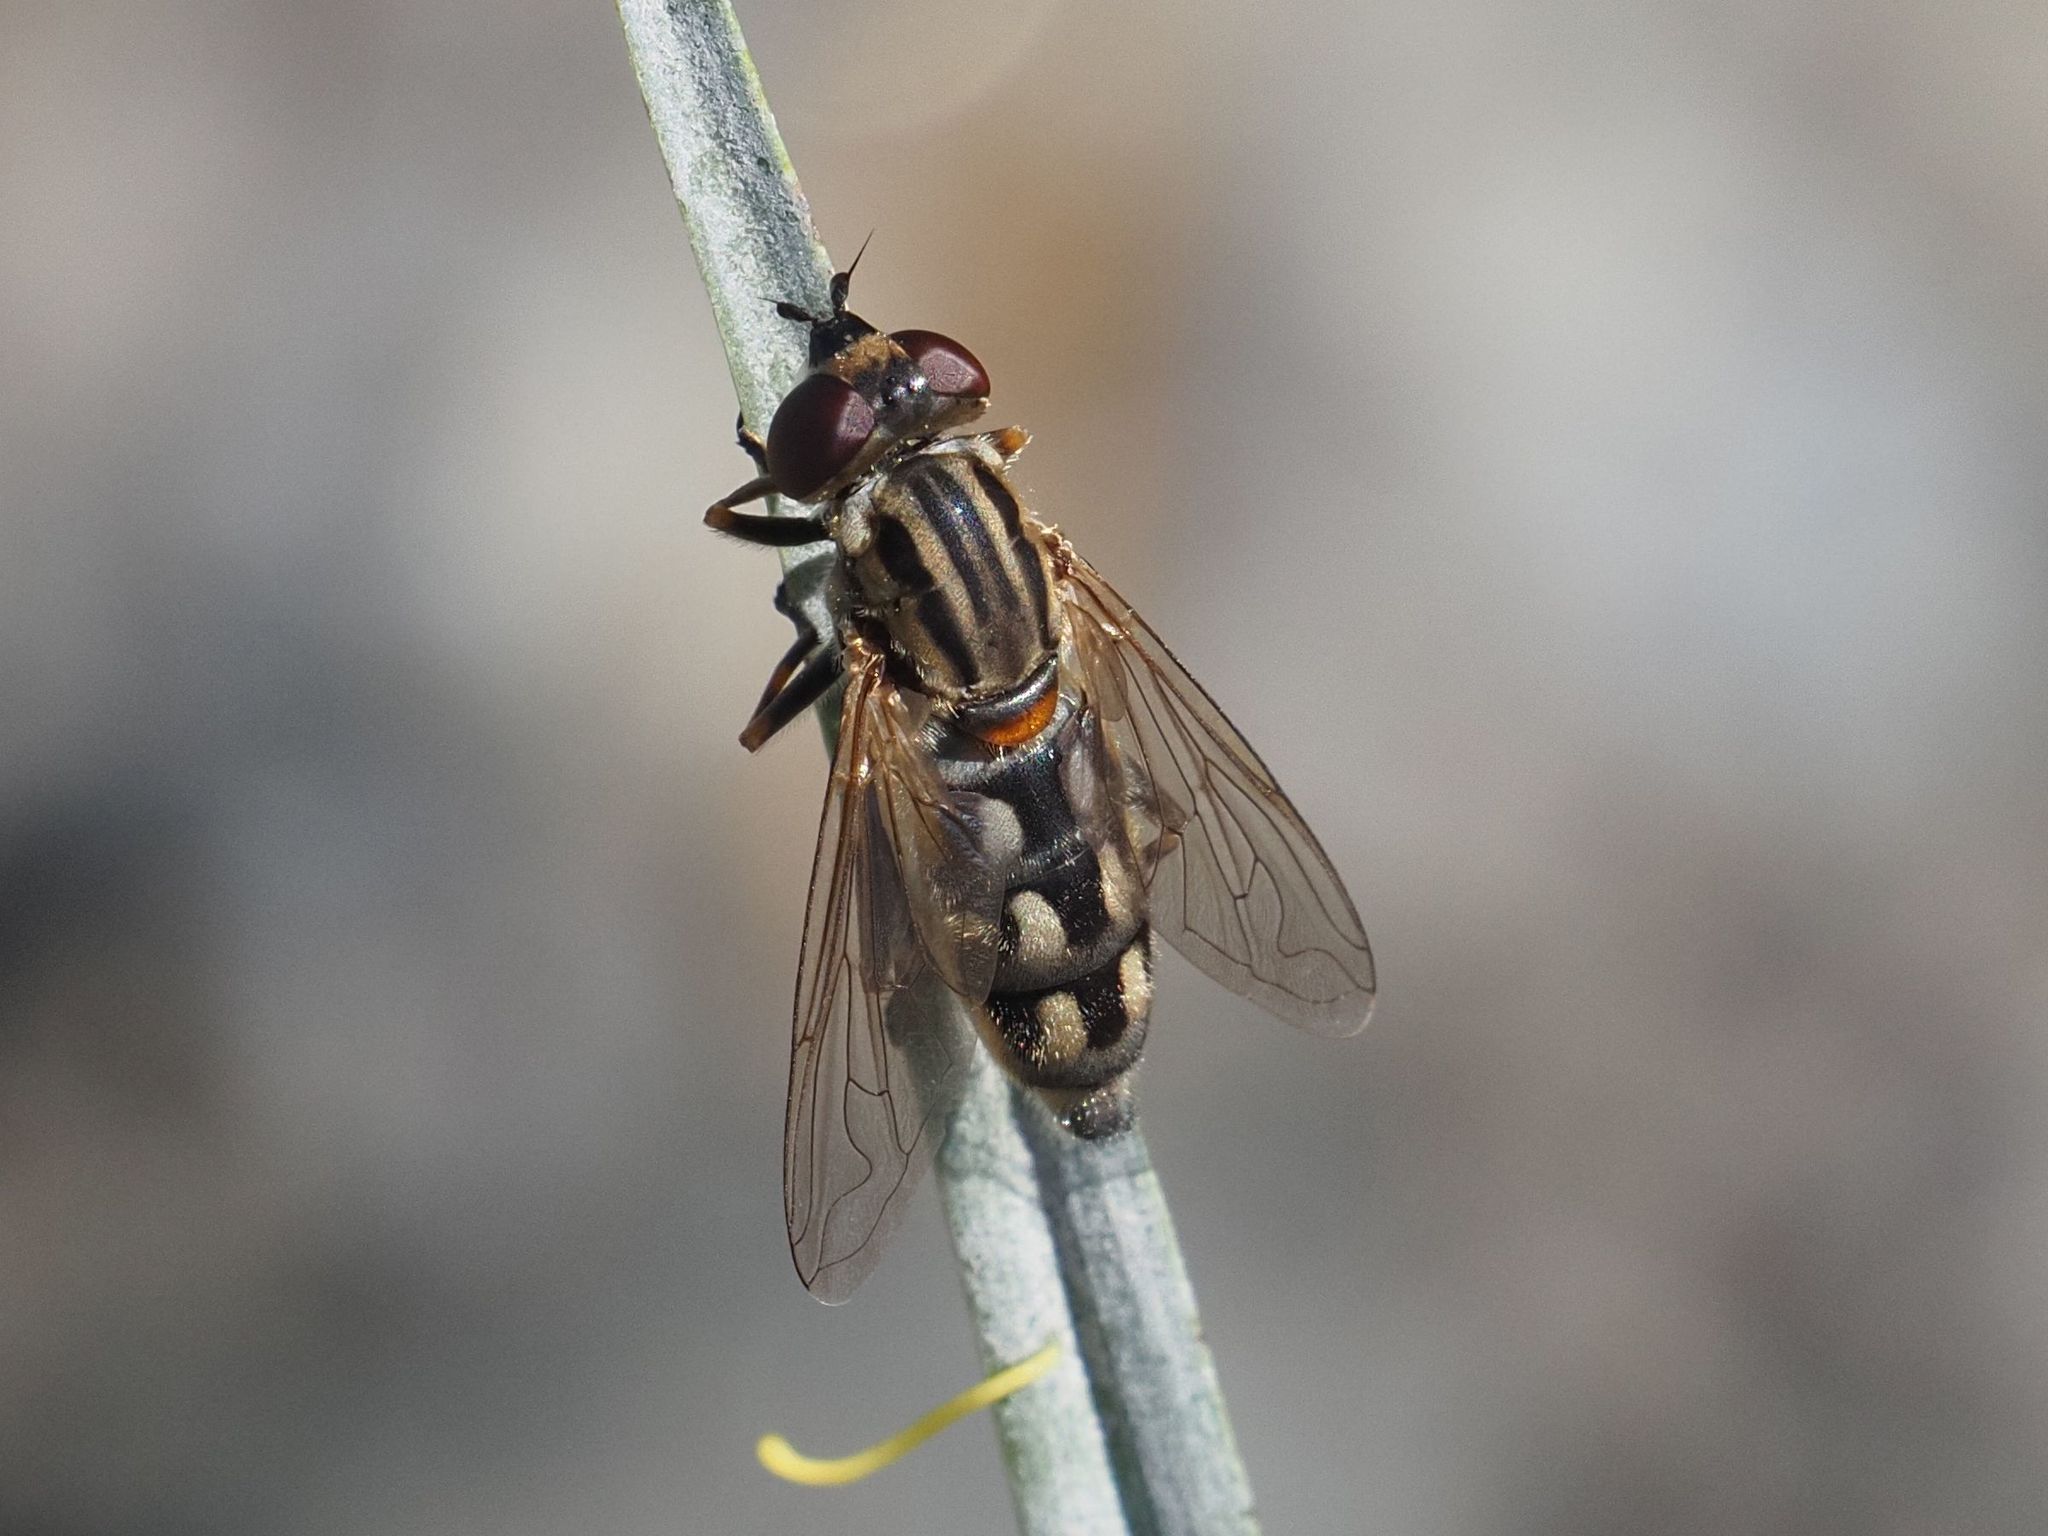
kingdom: Animalia
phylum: Arthropoda
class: Insecta
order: Diptera
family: Syrphidae
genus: Lejops
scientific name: Lejops vittatus
